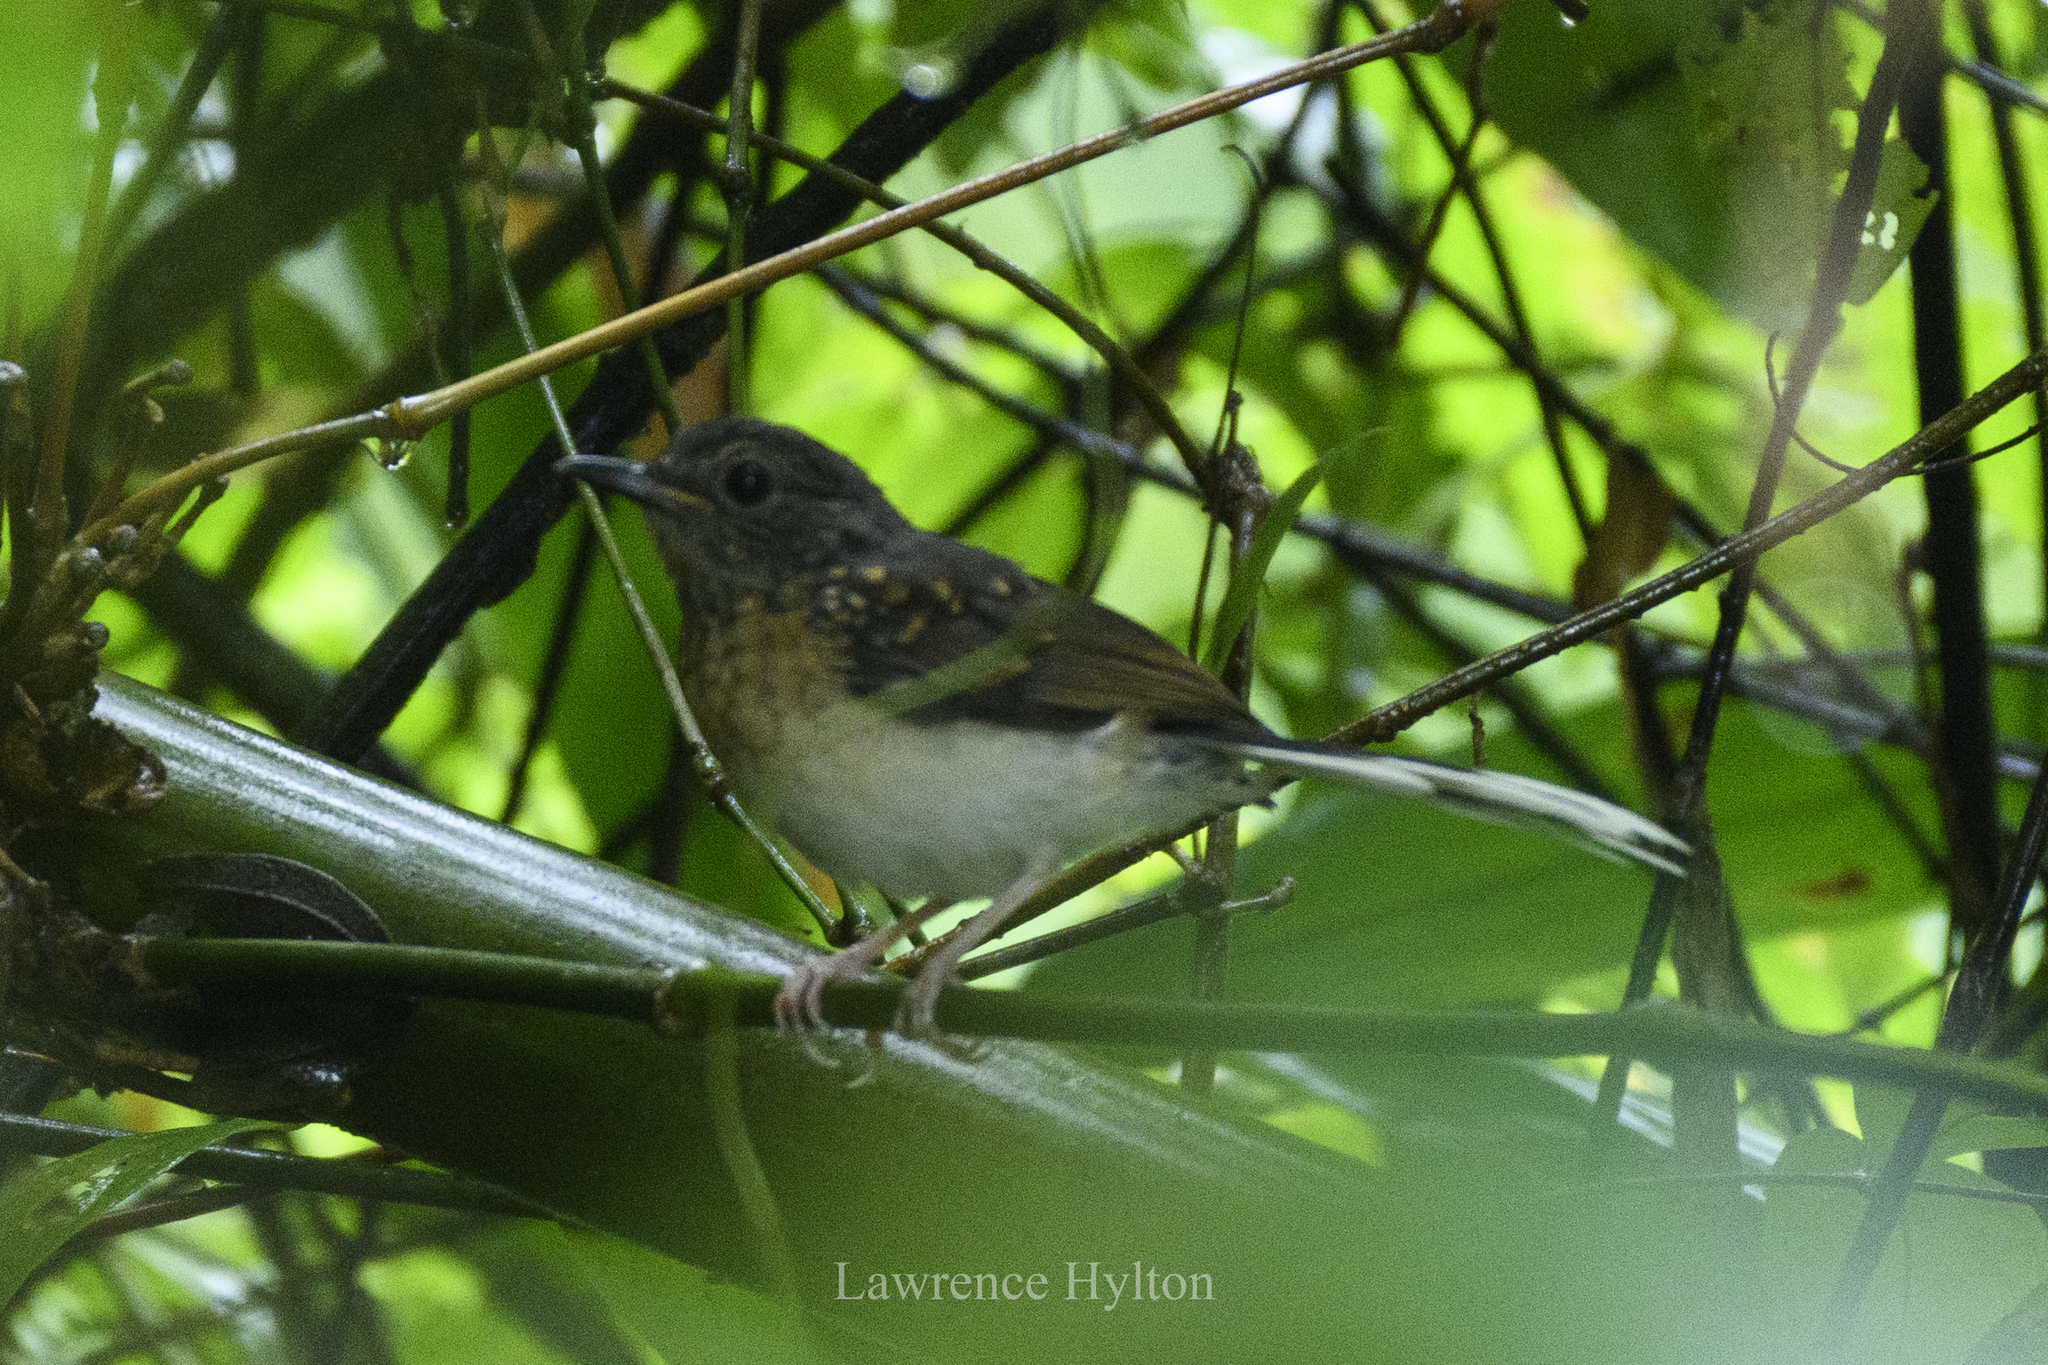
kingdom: Animalia
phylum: Chordata
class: Aves
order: Passeriformes
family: Muscicapidae
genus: Copsychus
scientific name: Copsychus malabaricus
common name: White-rumped shama
